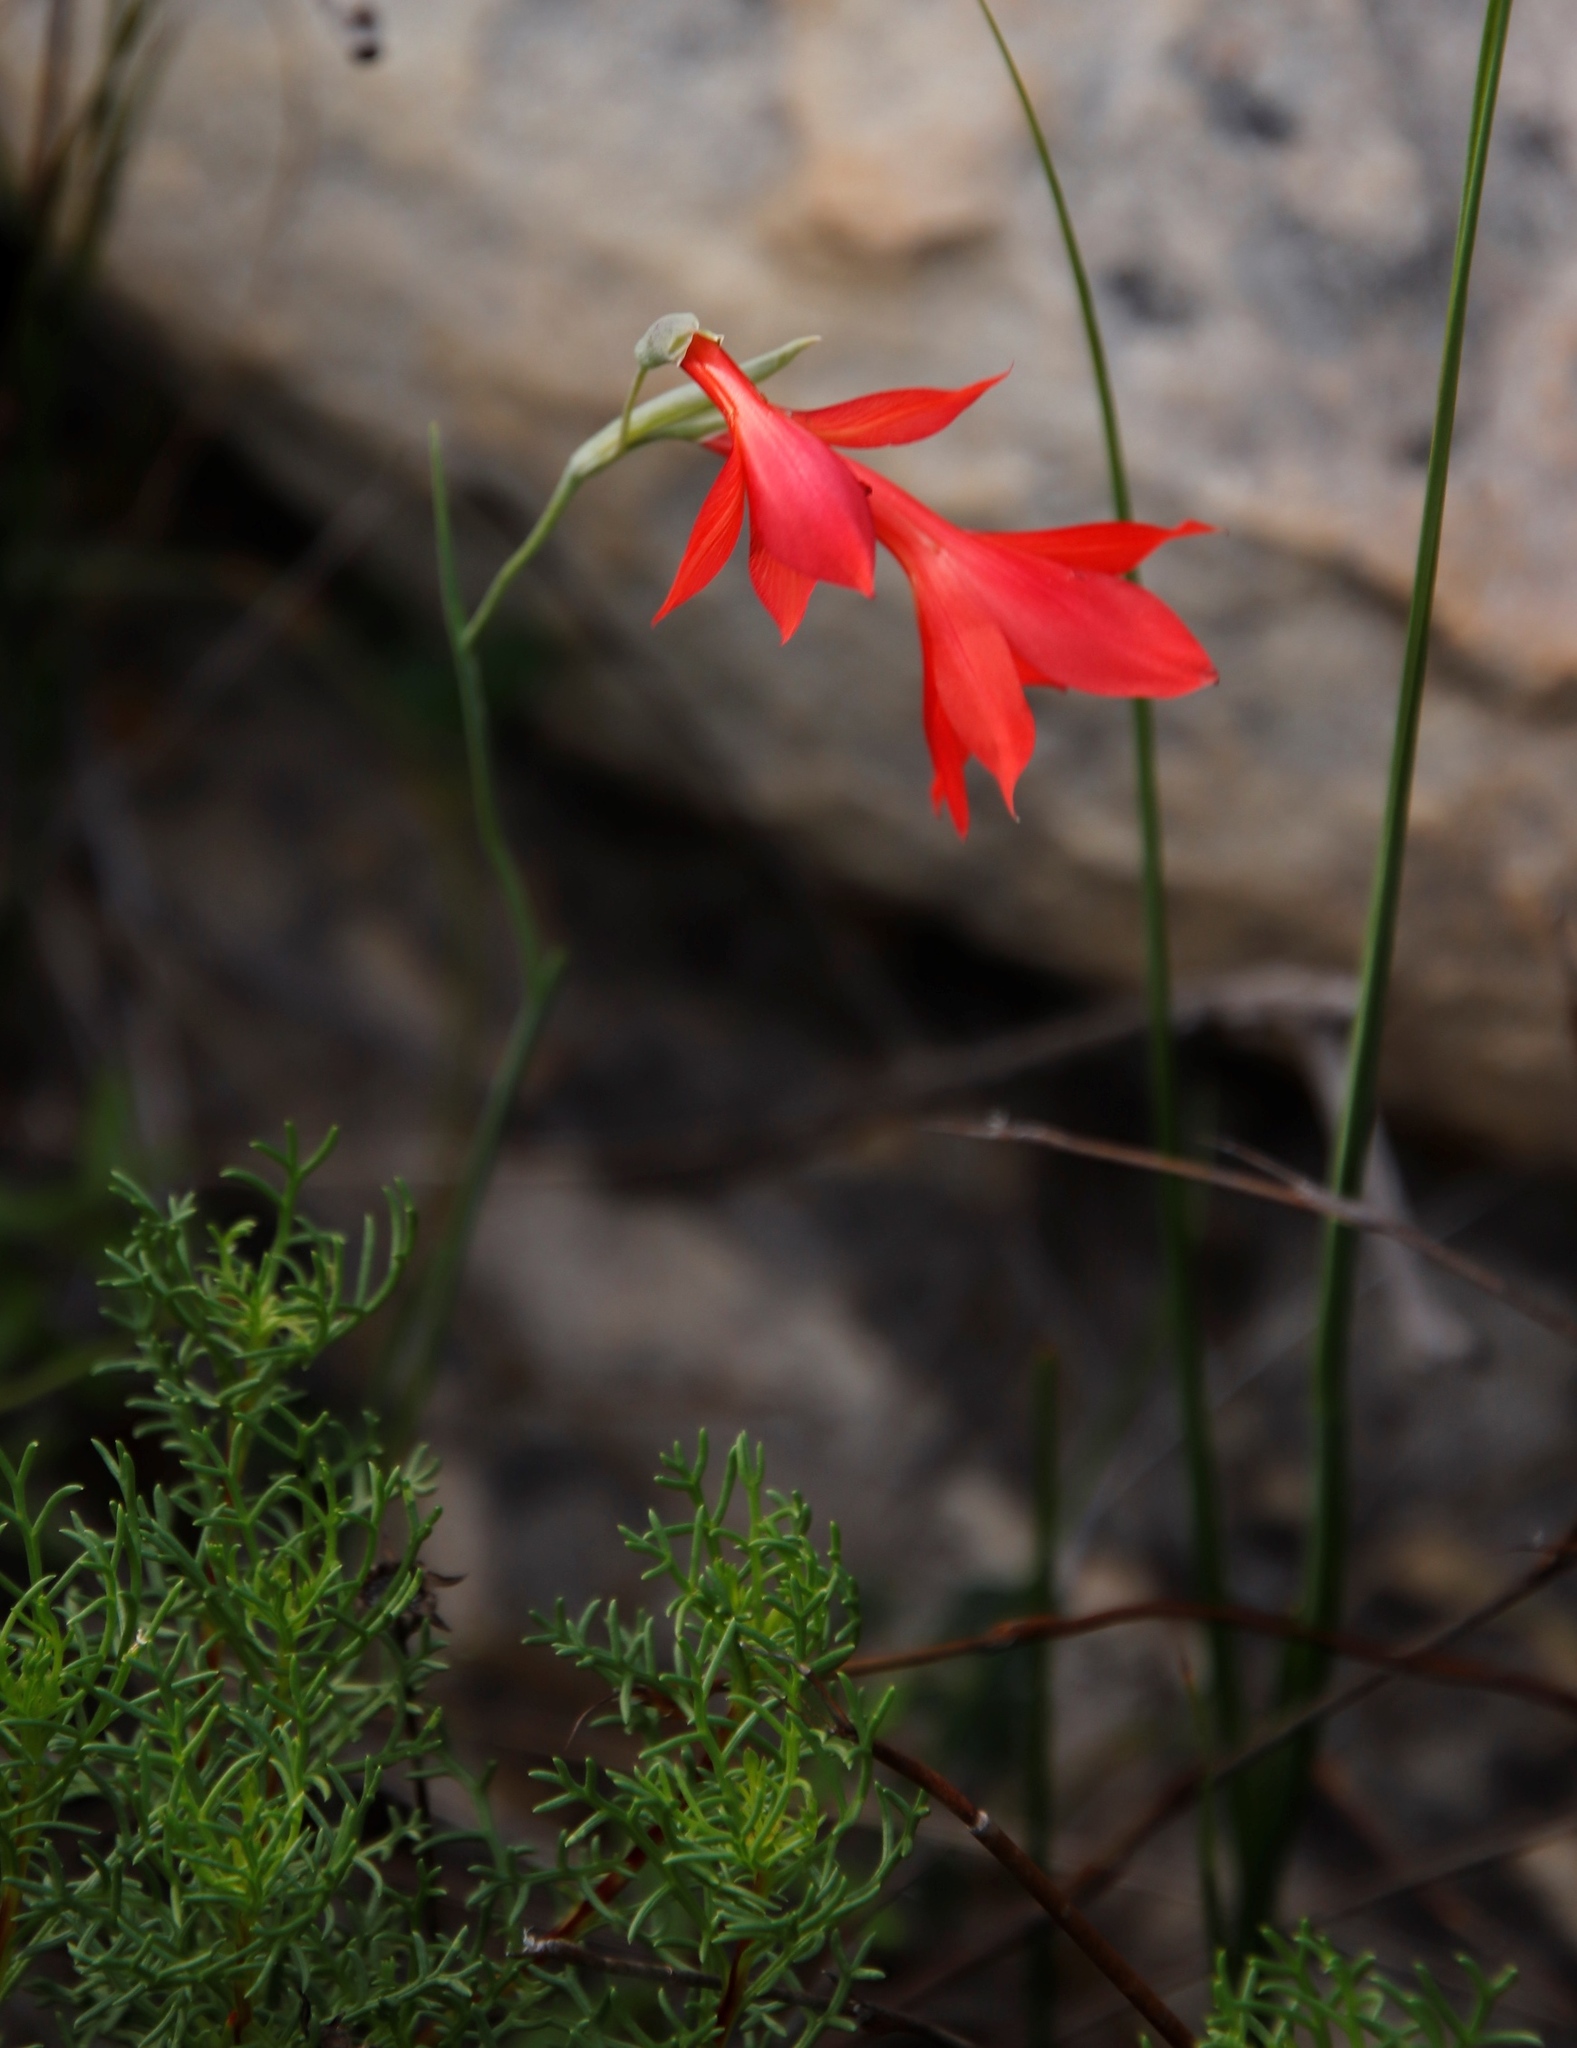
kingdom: Plantae
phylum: Tracheophyta
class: Liliopsida
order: Asparagales
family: Iridaceae
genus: Gladiolus
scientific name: Gladiolus priorii
